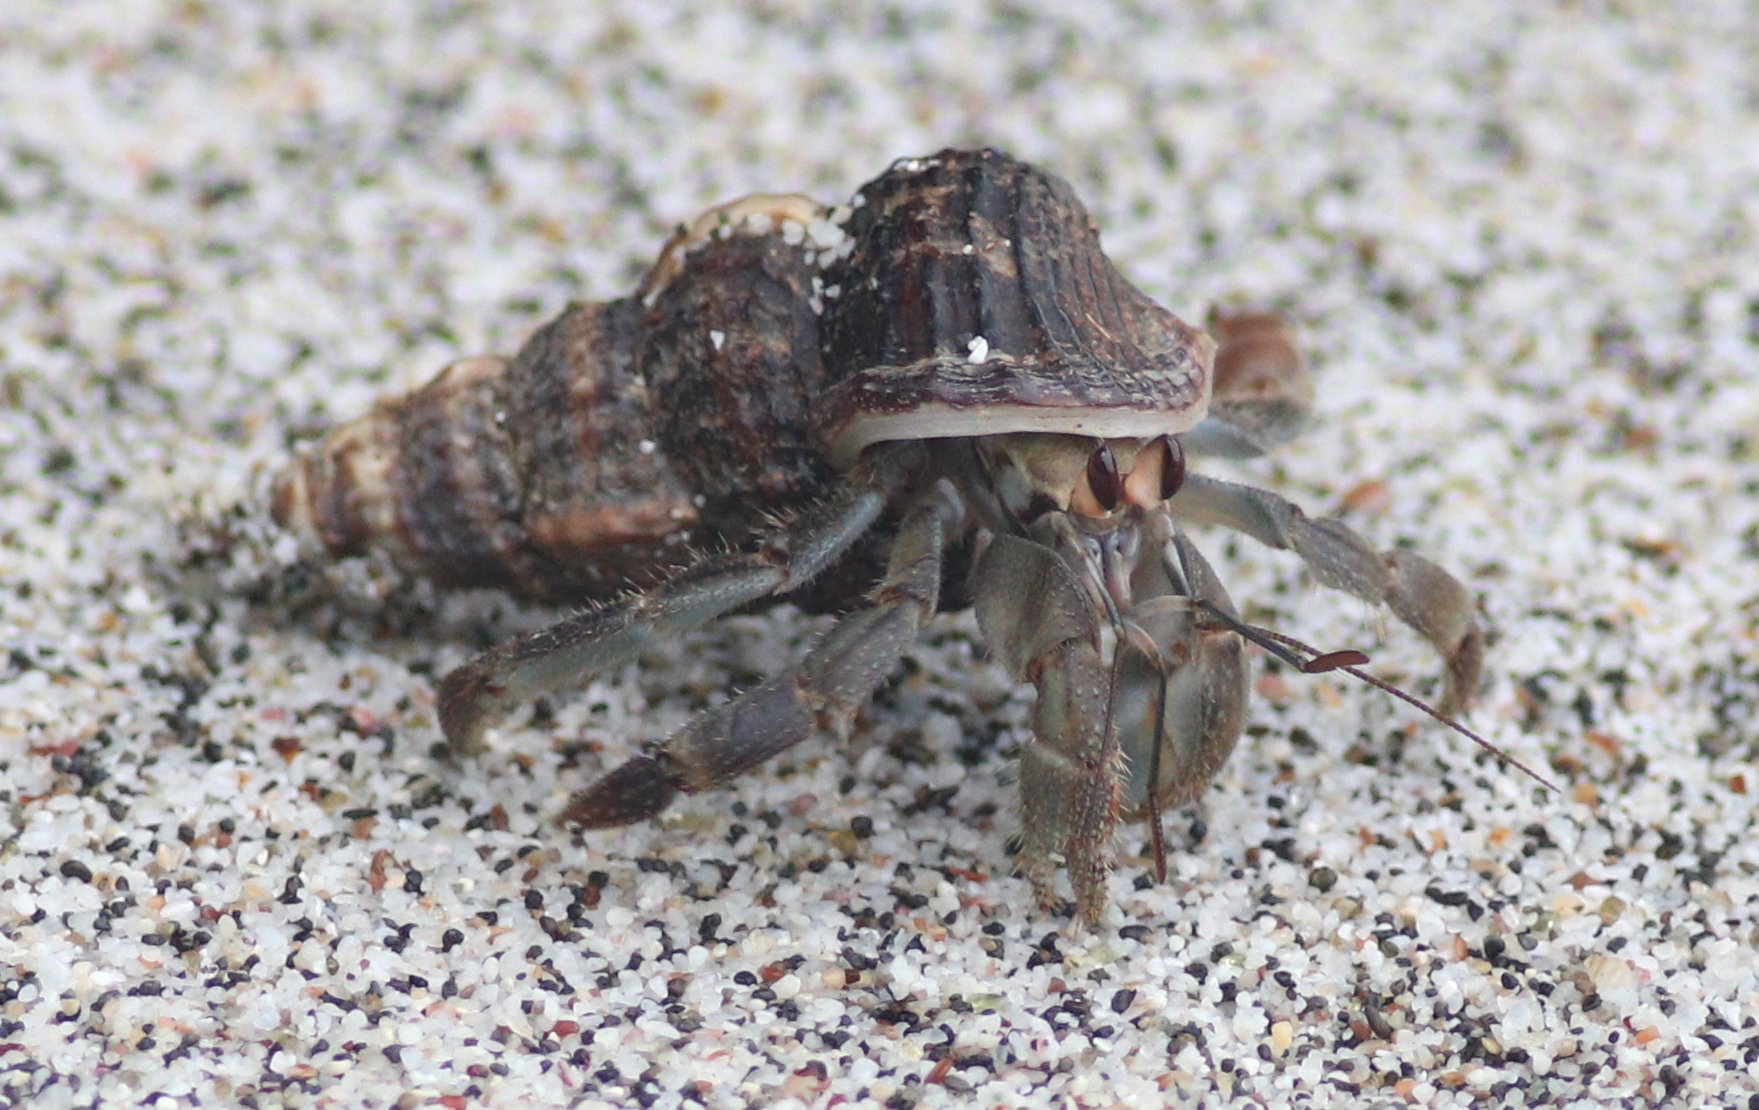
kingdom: Animalia
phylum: Arthropoda
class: Malacostraca
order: Decapoda
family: Coenobitidae
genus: Coenobita
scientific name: Coenobita compressus
